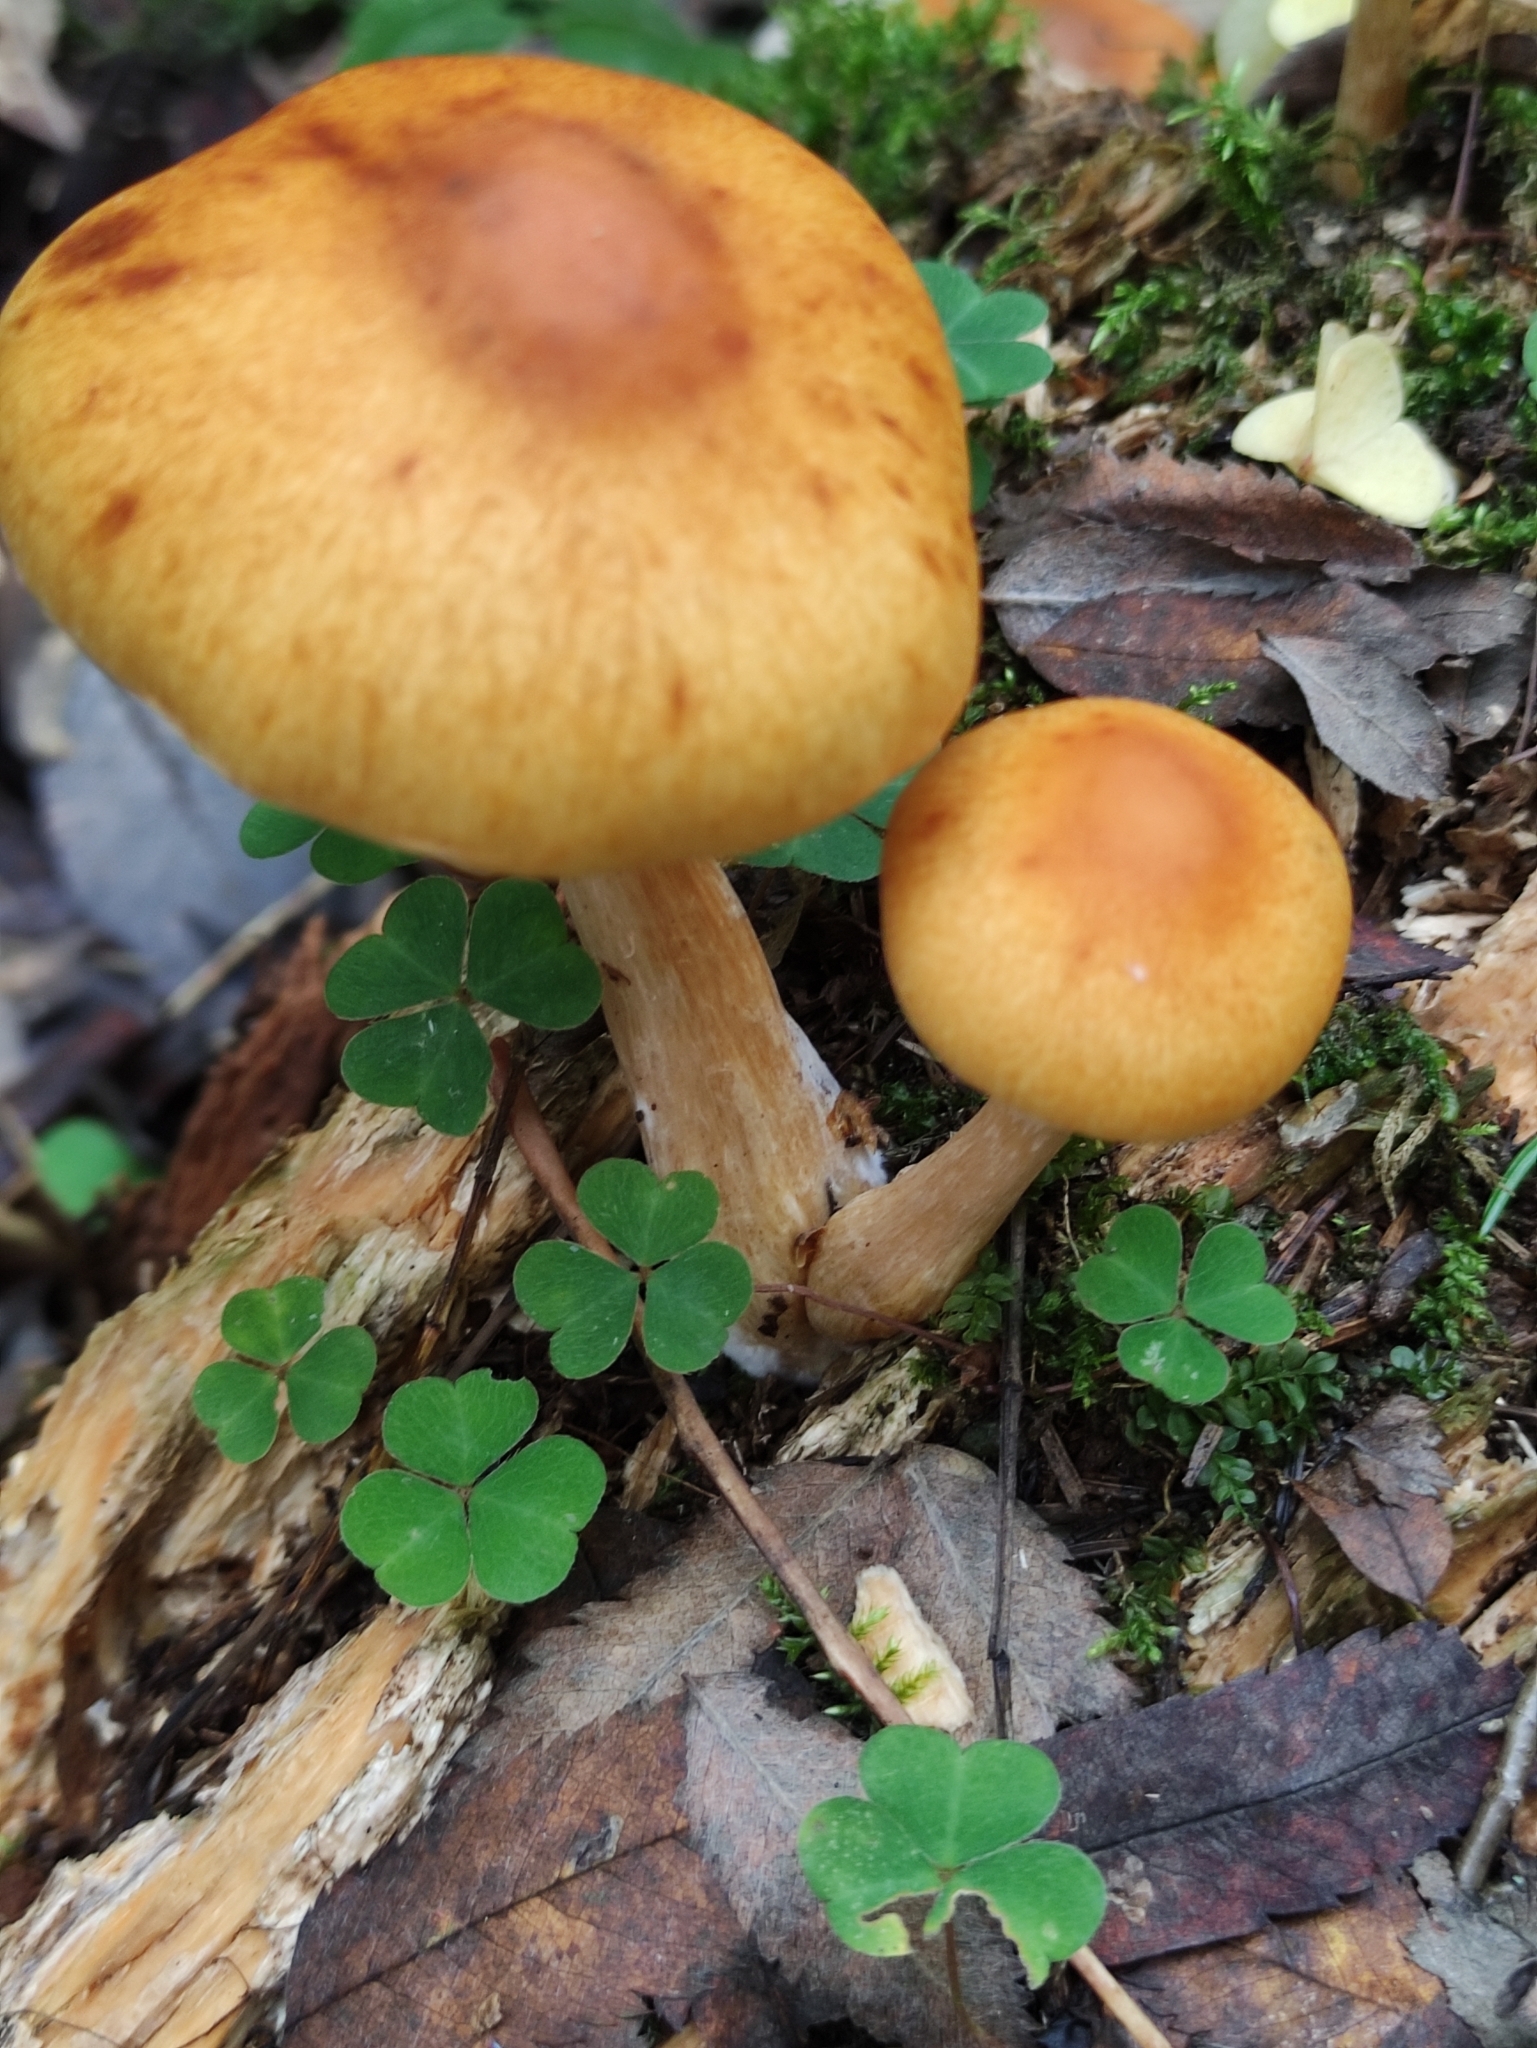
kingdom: Fungi
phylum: Basidiomycota
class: Agaricomycetes
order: Agaricales
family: Hymenogastraceae
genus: Gymnopilus
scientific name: Gymnopilus penetrans
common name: Common rustgill
